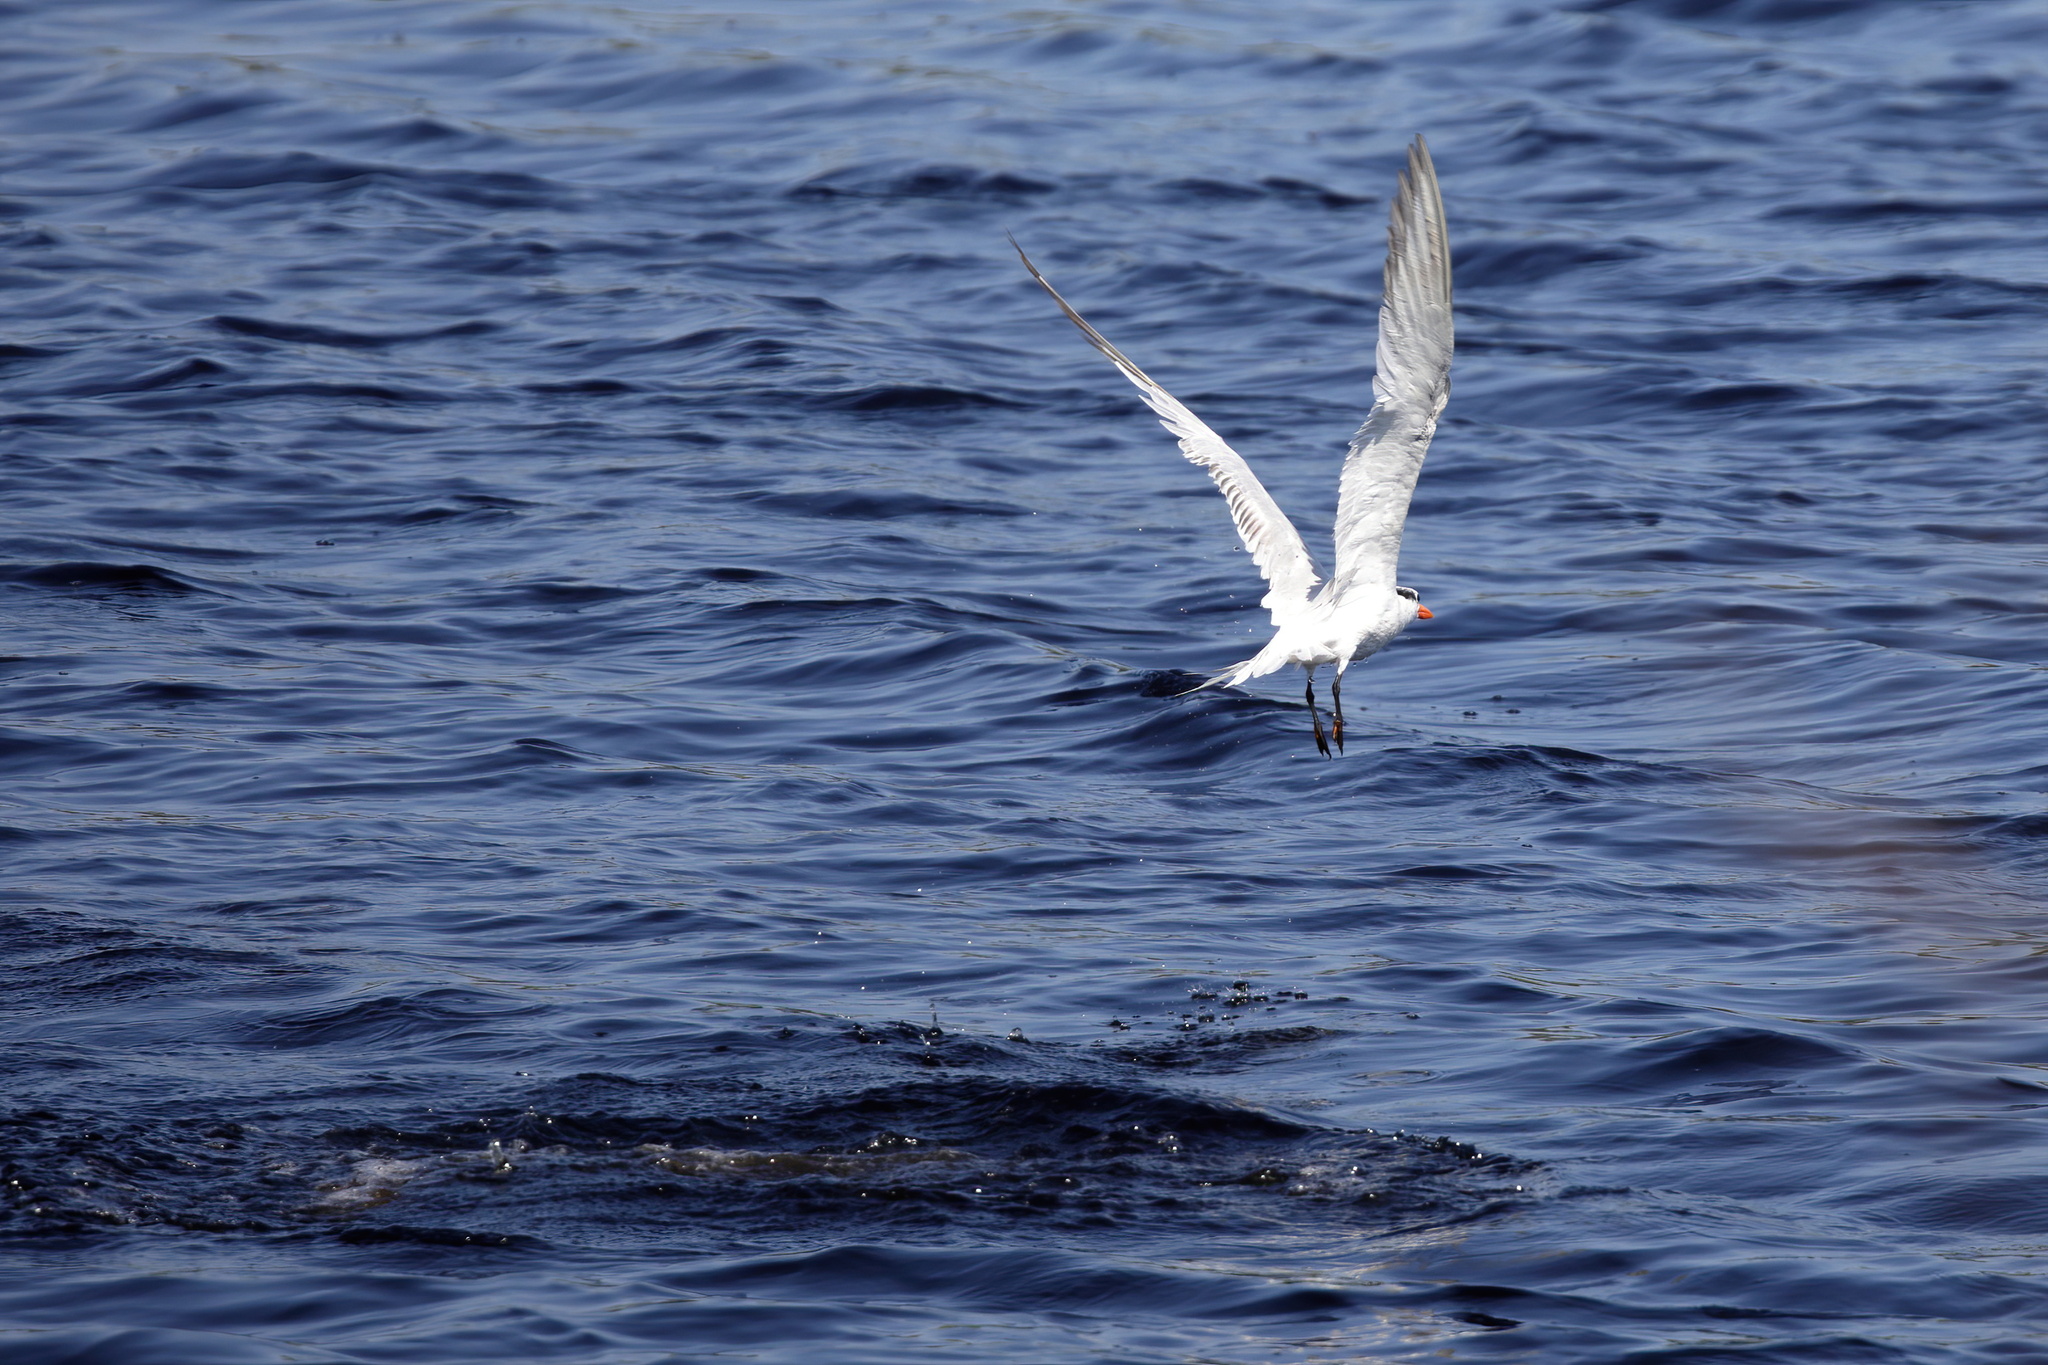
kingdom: Animalia
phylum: Chordata
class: Aves
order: Charadriiformes
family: Laridae
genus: Thalasseus
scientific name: Thalasseus maximus
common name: Royal tern
